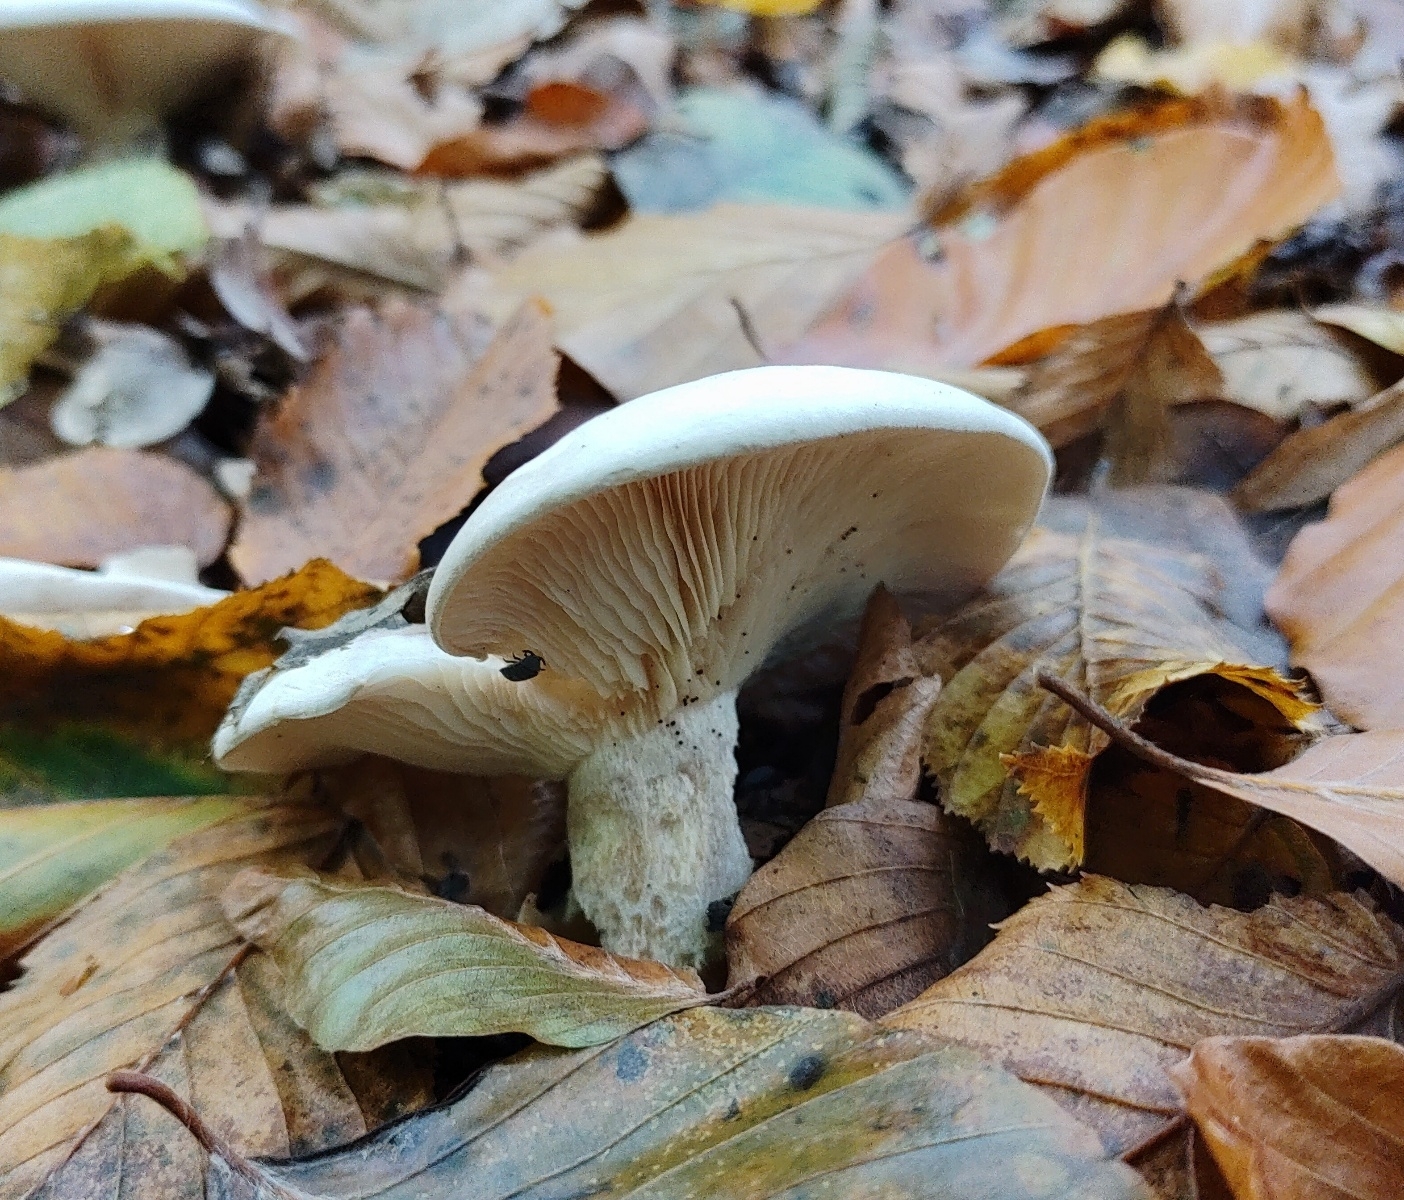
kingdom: Fungi
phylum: Basidiomycota
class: Agaricomycetes
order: Agaricales
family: Tricholomataceae
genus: Clitocybe
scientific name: Clitocybe nebularis
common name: Clouded agaric
